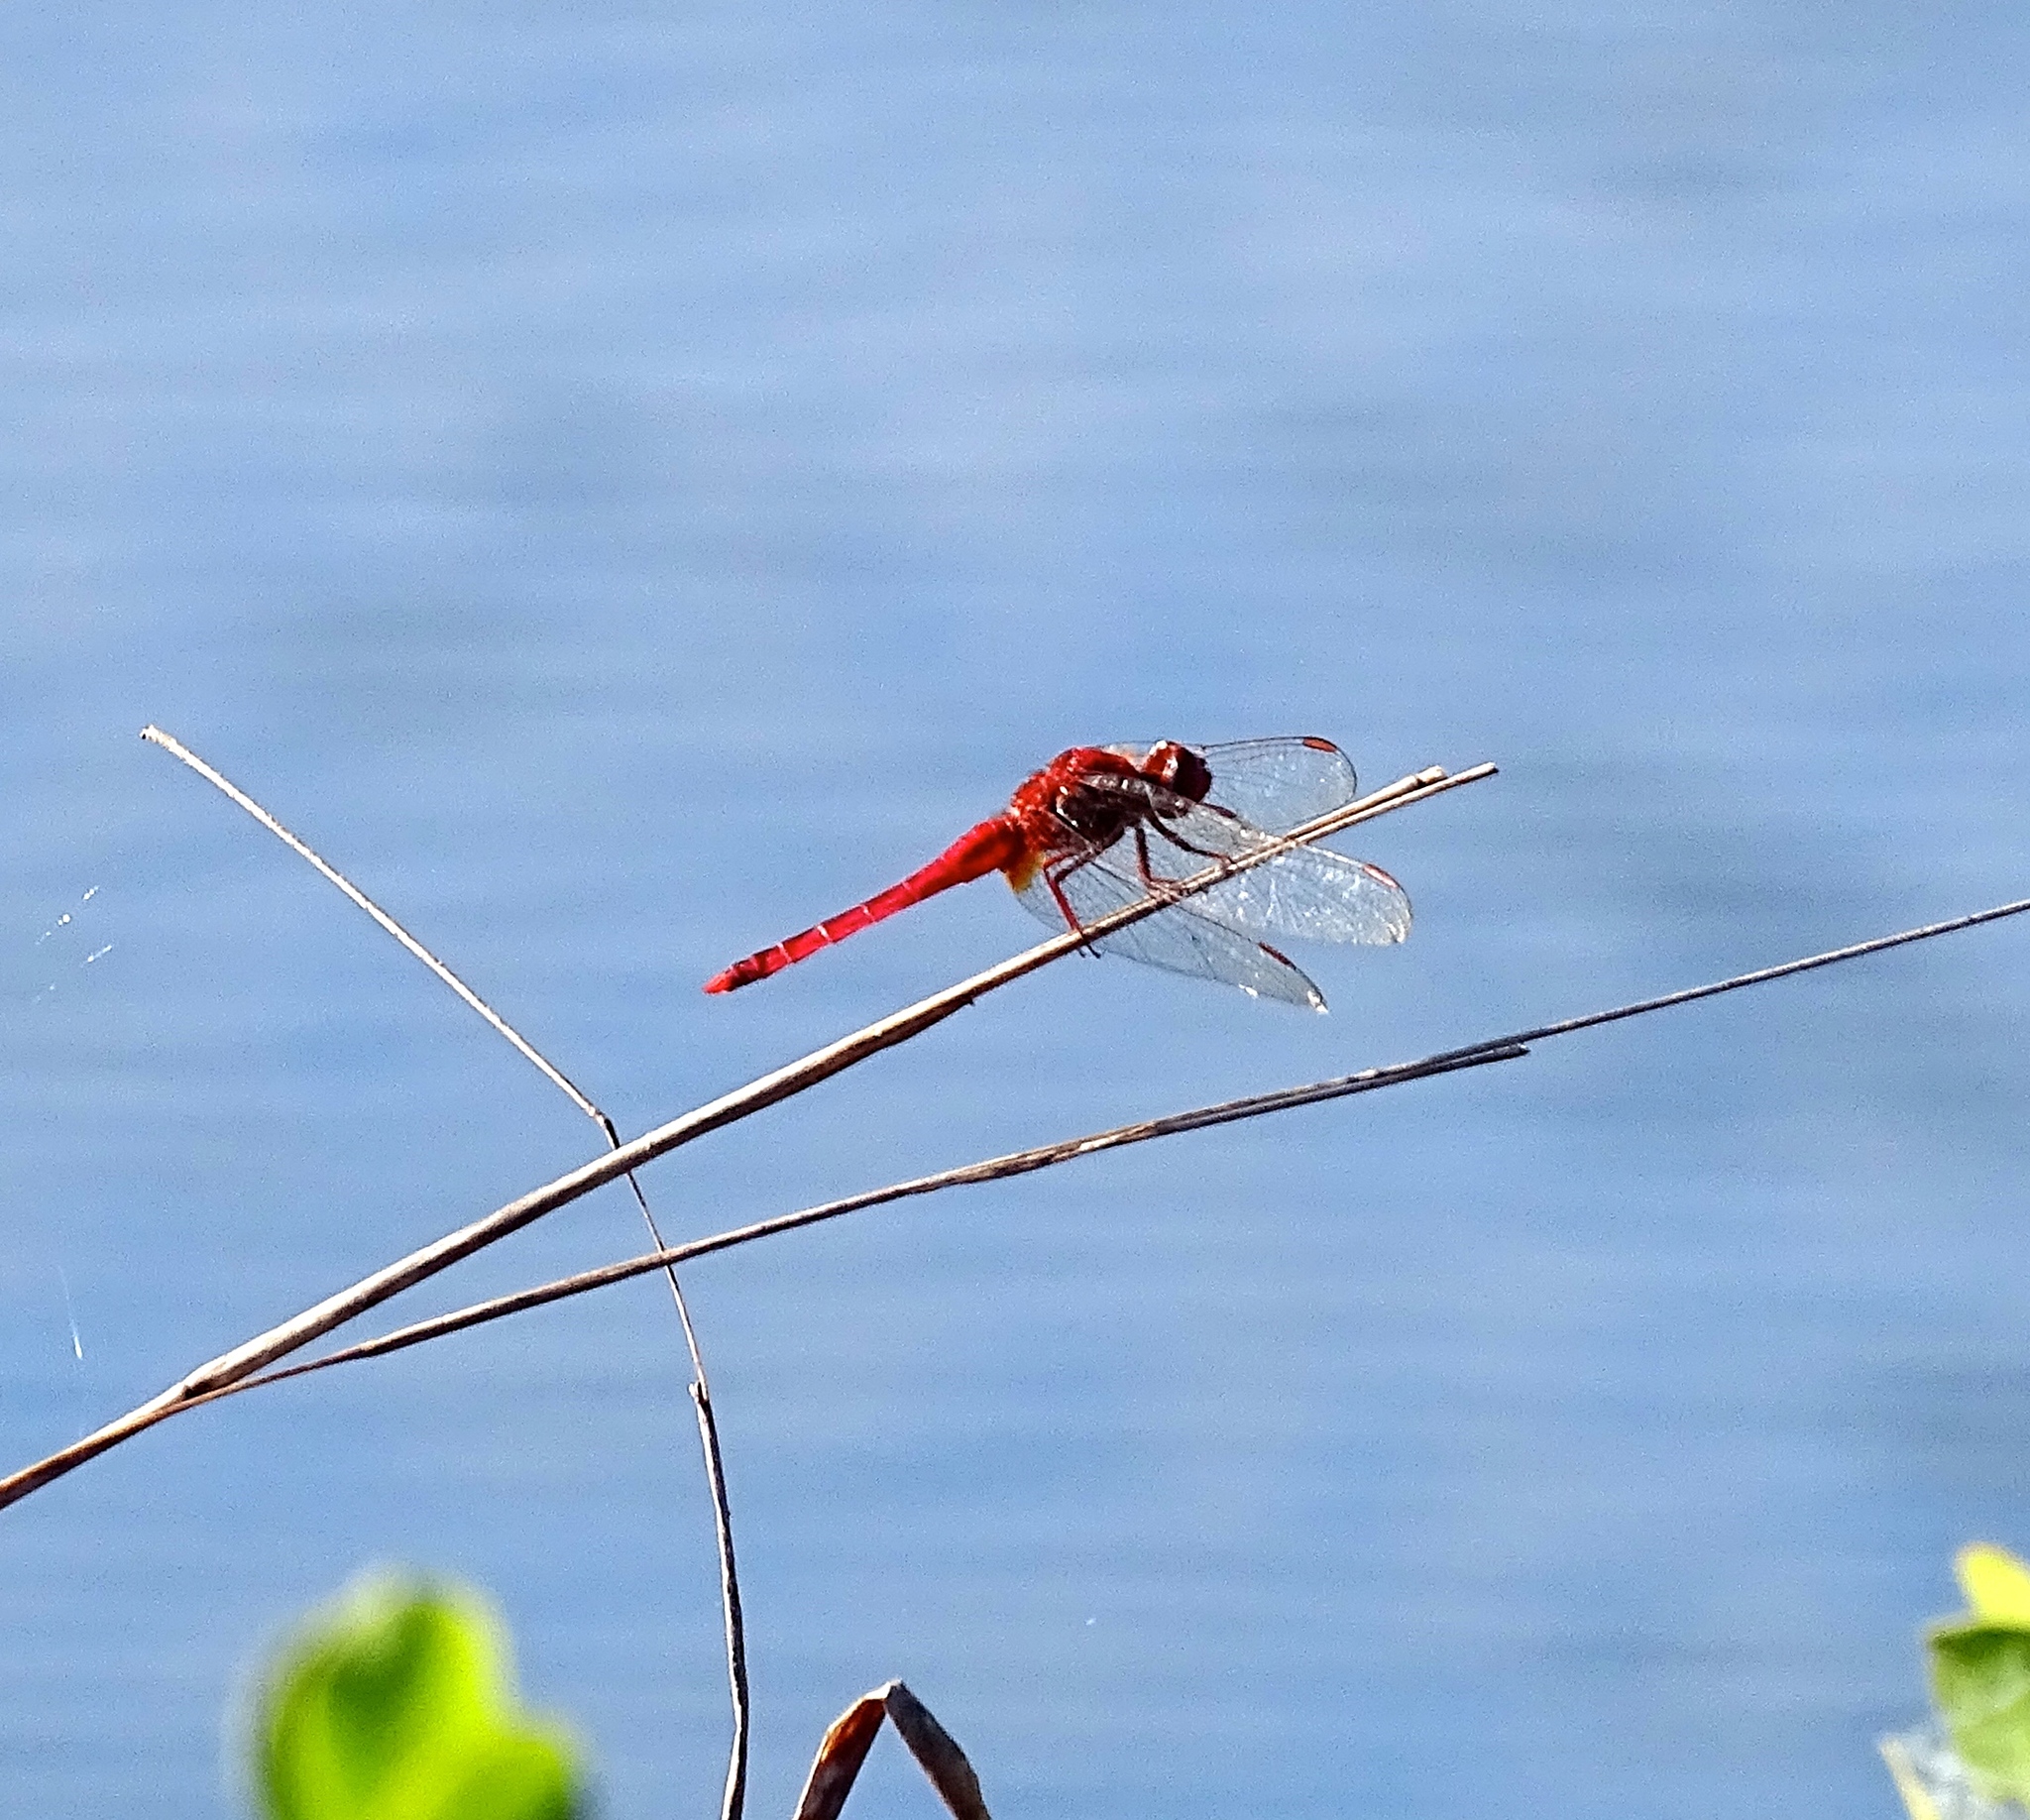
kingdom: Animalia
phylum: Arthropoda
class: Insecta
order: Odonata
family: Libellulidae
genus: Crocothemis
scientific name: Crocothemis servilia
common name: Scarlet skimmer
